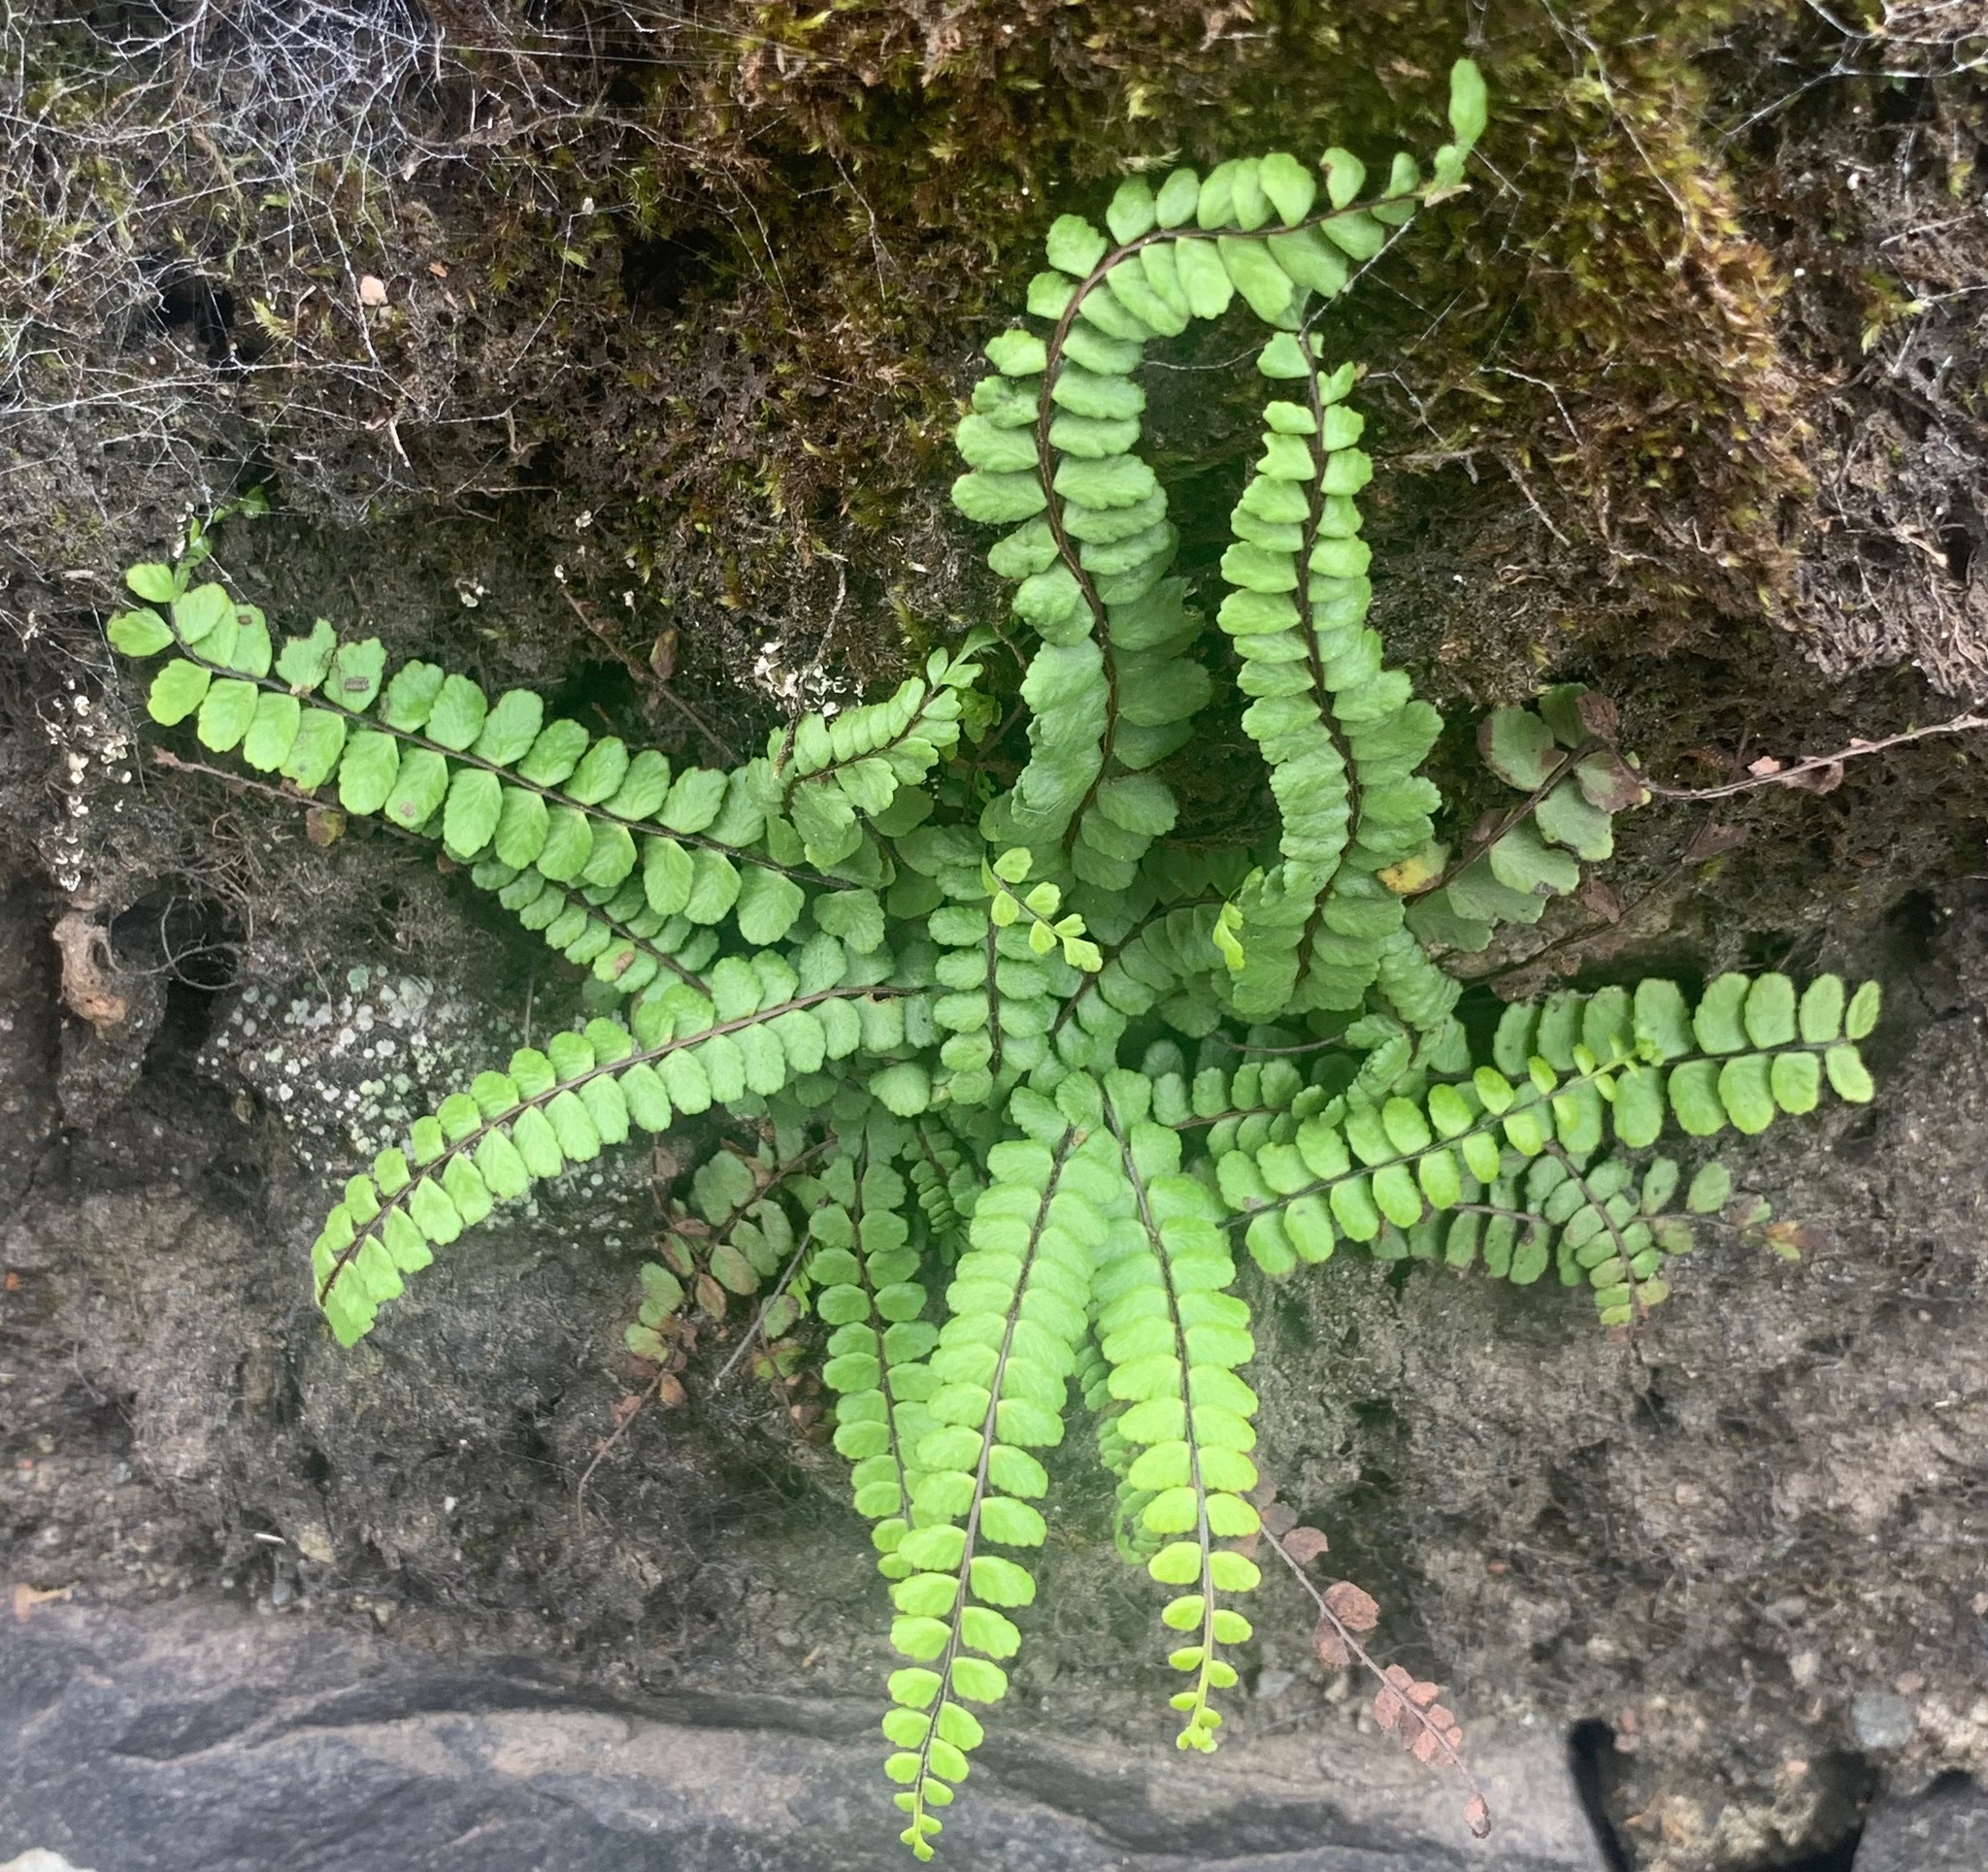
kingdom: Plantae
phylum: Tracheophyta
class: Polypodiopsida
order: Polypodiales
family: Aspleniaceae
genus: Asplenium
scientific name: Asplenium trichomanes
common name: Maidenhair spleenwort
